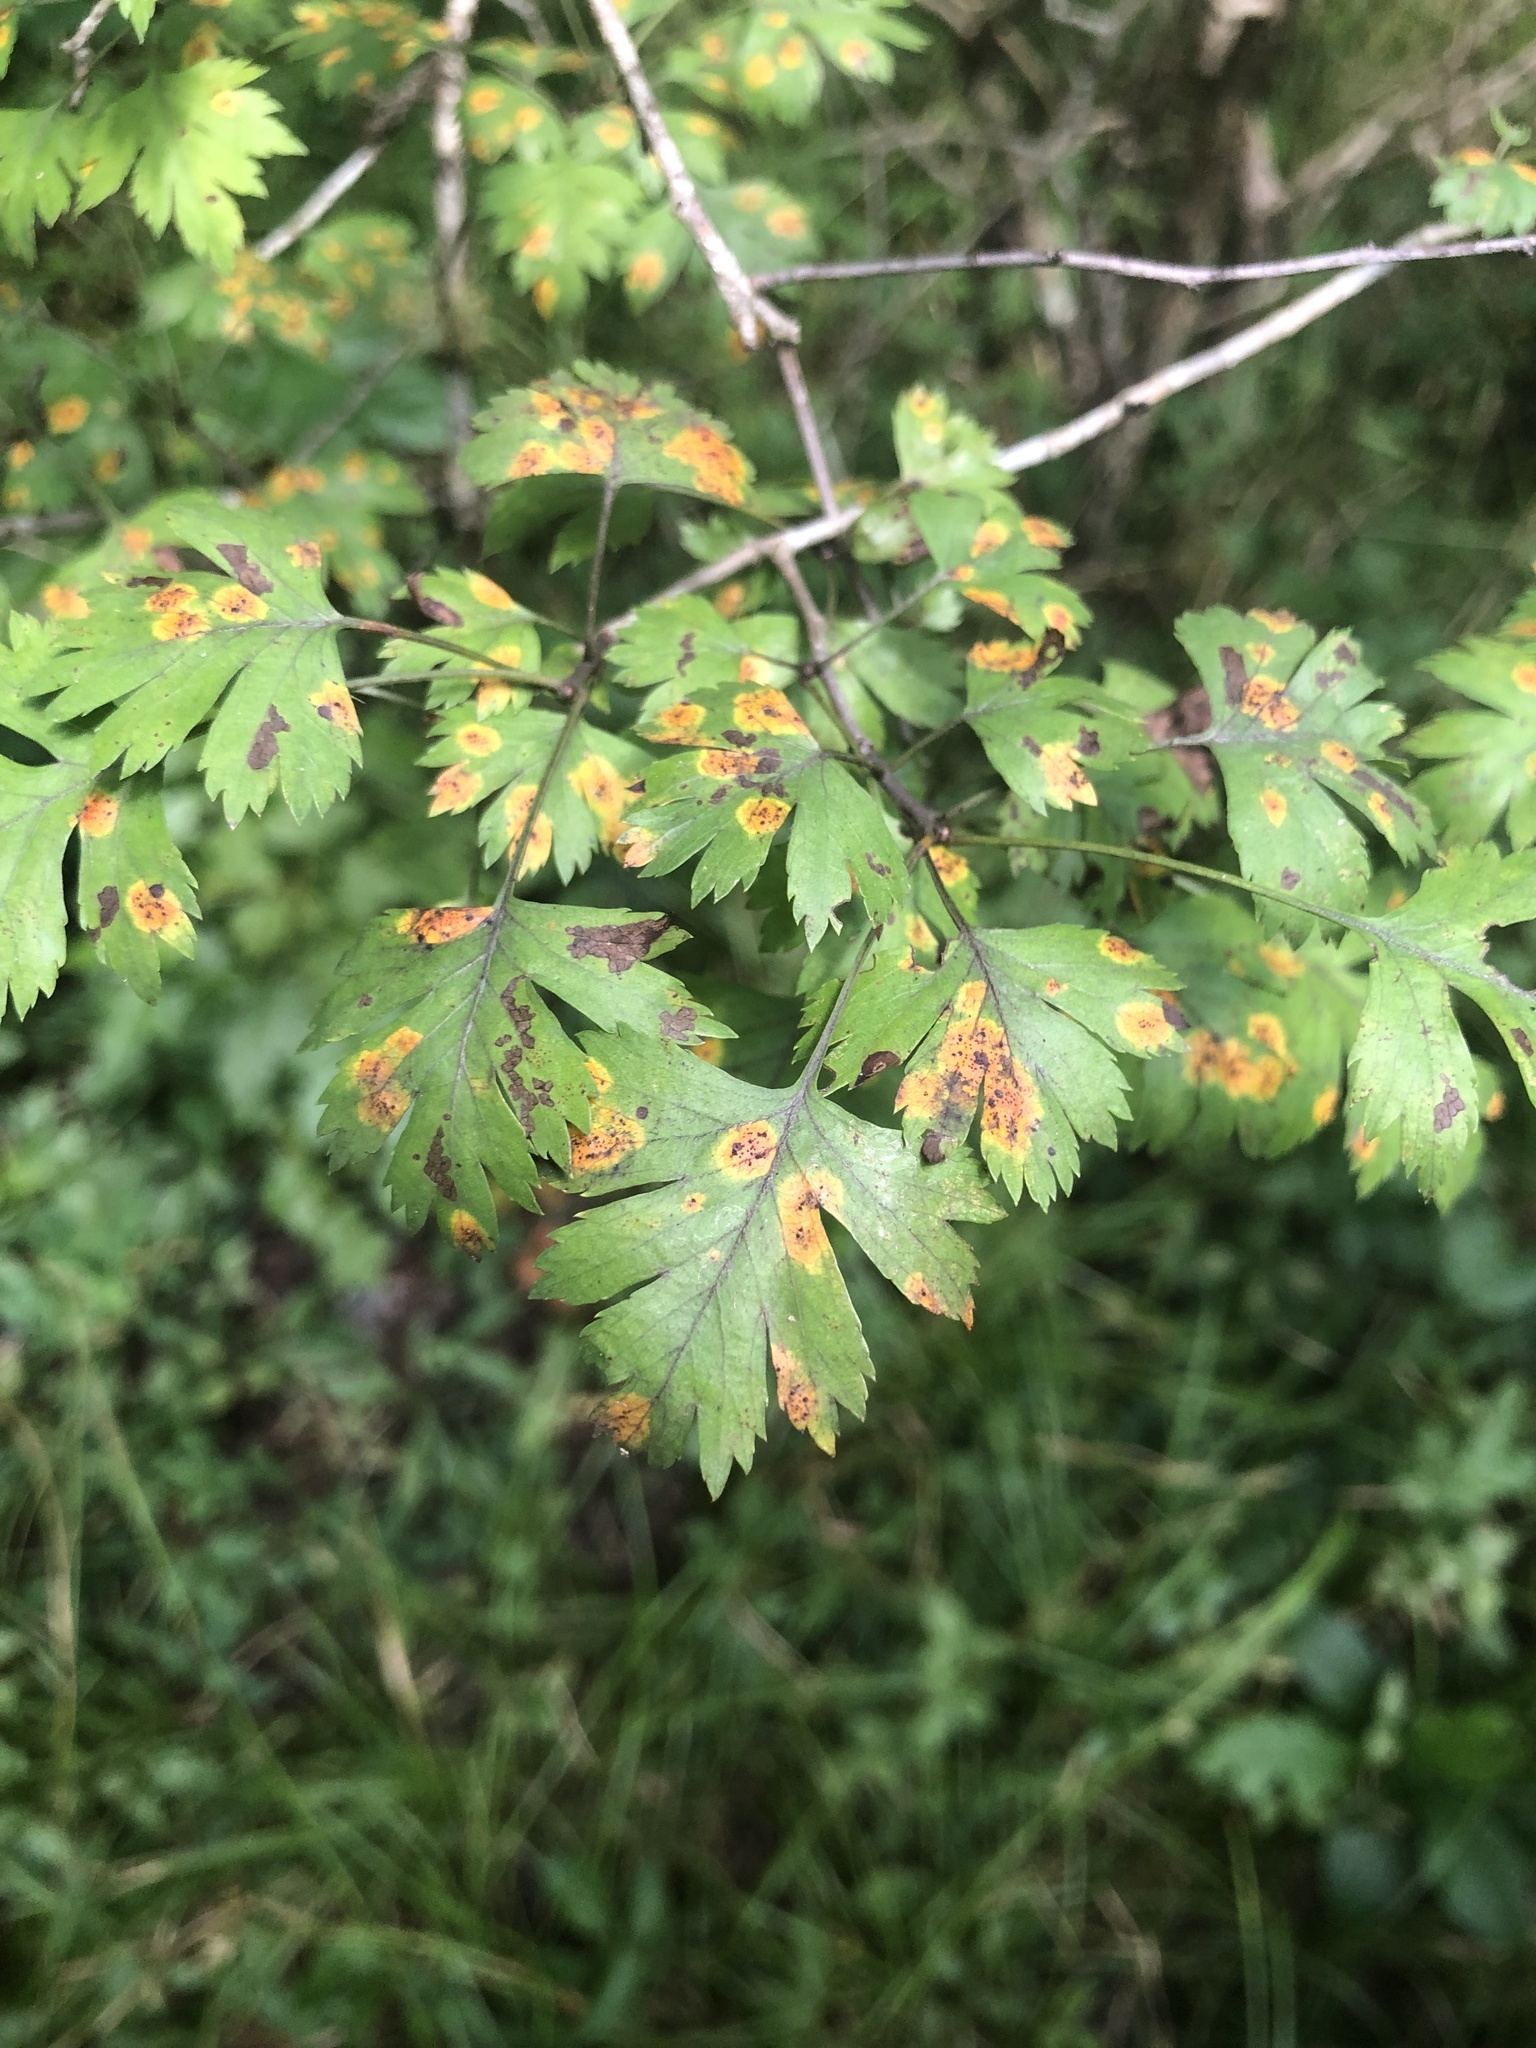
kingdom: Plantae
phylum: Tracheophyta
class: Magnoliopsida
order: Rosales
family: Rosaceae
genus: Crataegus
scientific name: Crataegus marshallii
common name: Parsley-hawthorn
